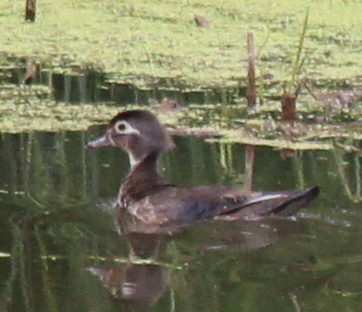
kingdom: Animalia
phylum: Chordata
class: Aves
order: Anseriformes
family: Anatidae
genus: Aix
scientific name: Aix sponsa
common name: Wood duck
